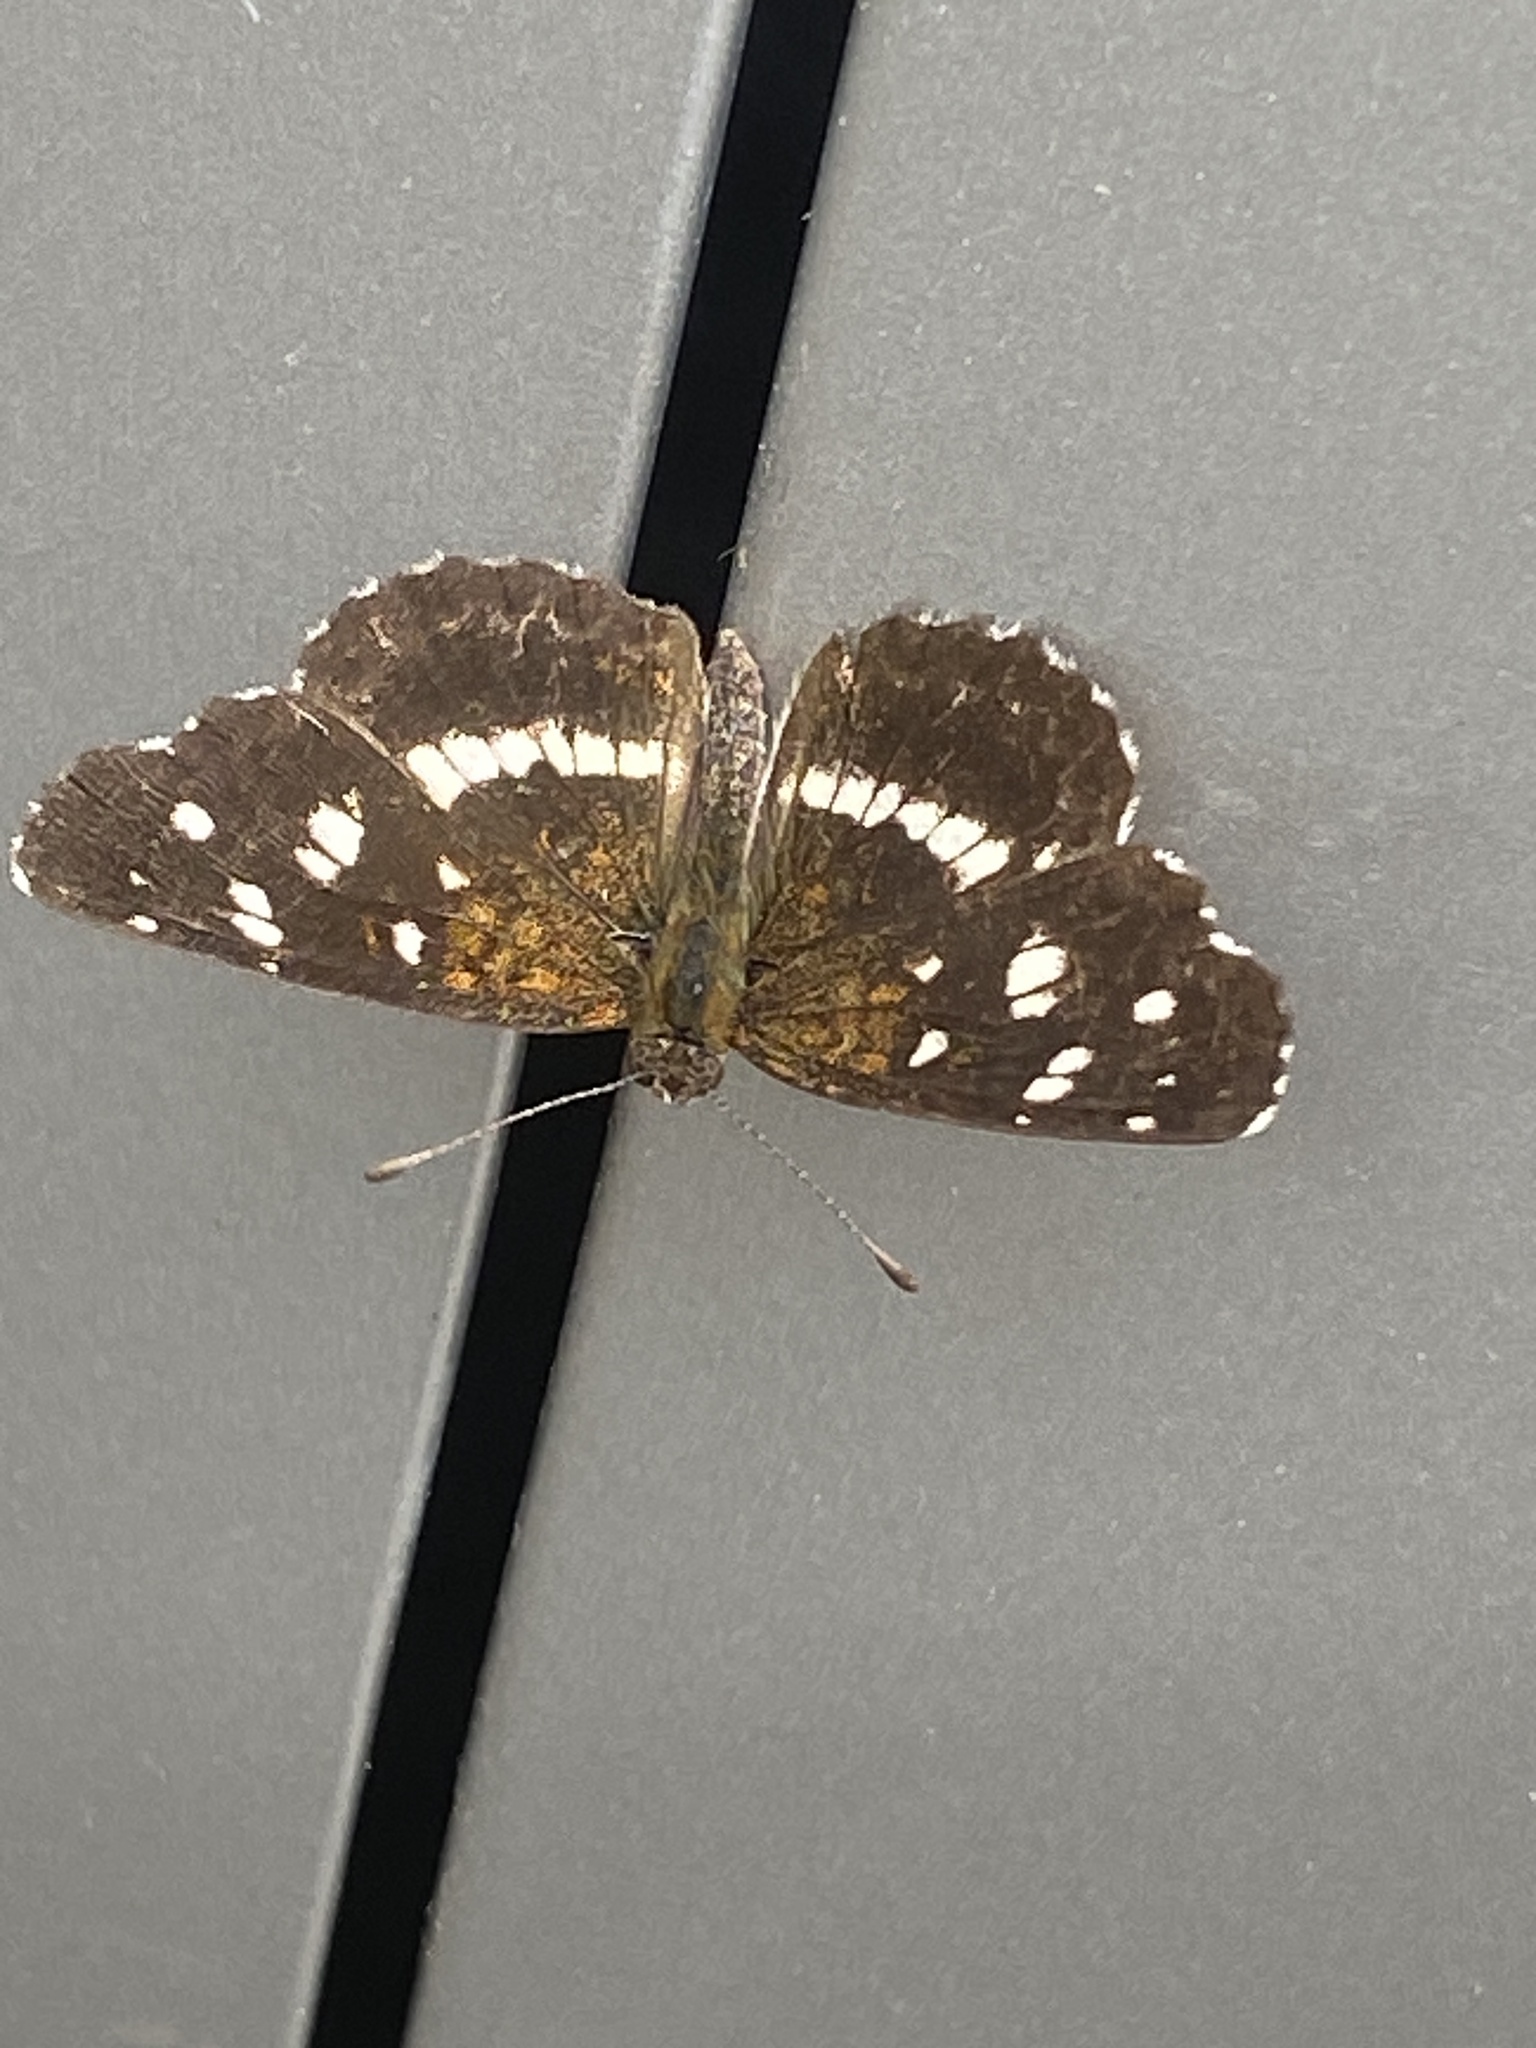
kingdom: Animalia
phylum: Arthropoda
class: Insecta
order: Lepidoptera
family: Nymphalidae
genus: Ortilia
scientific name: Ortilia ithra
